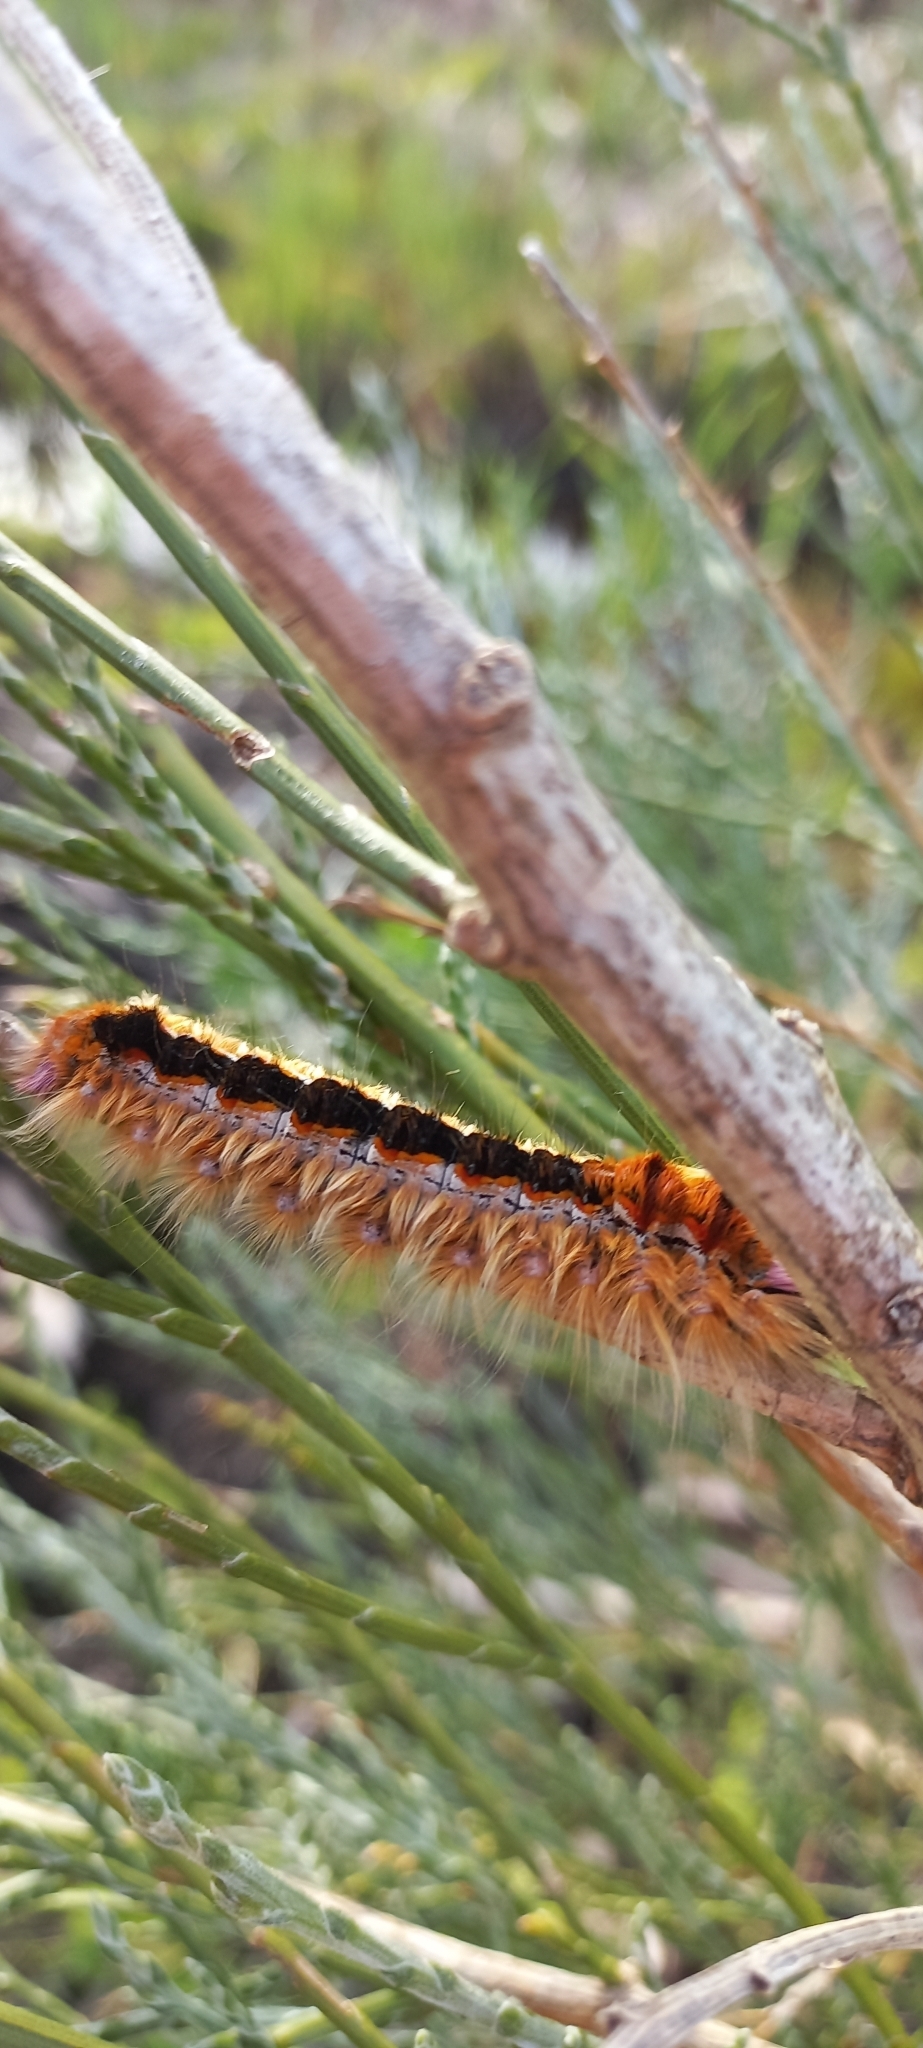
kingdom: Animalia
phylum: Arthropoda
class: Insecta
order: Lepidoptera
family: Lasiocampidae
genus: Eutricha
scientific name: Eutricha capensis
